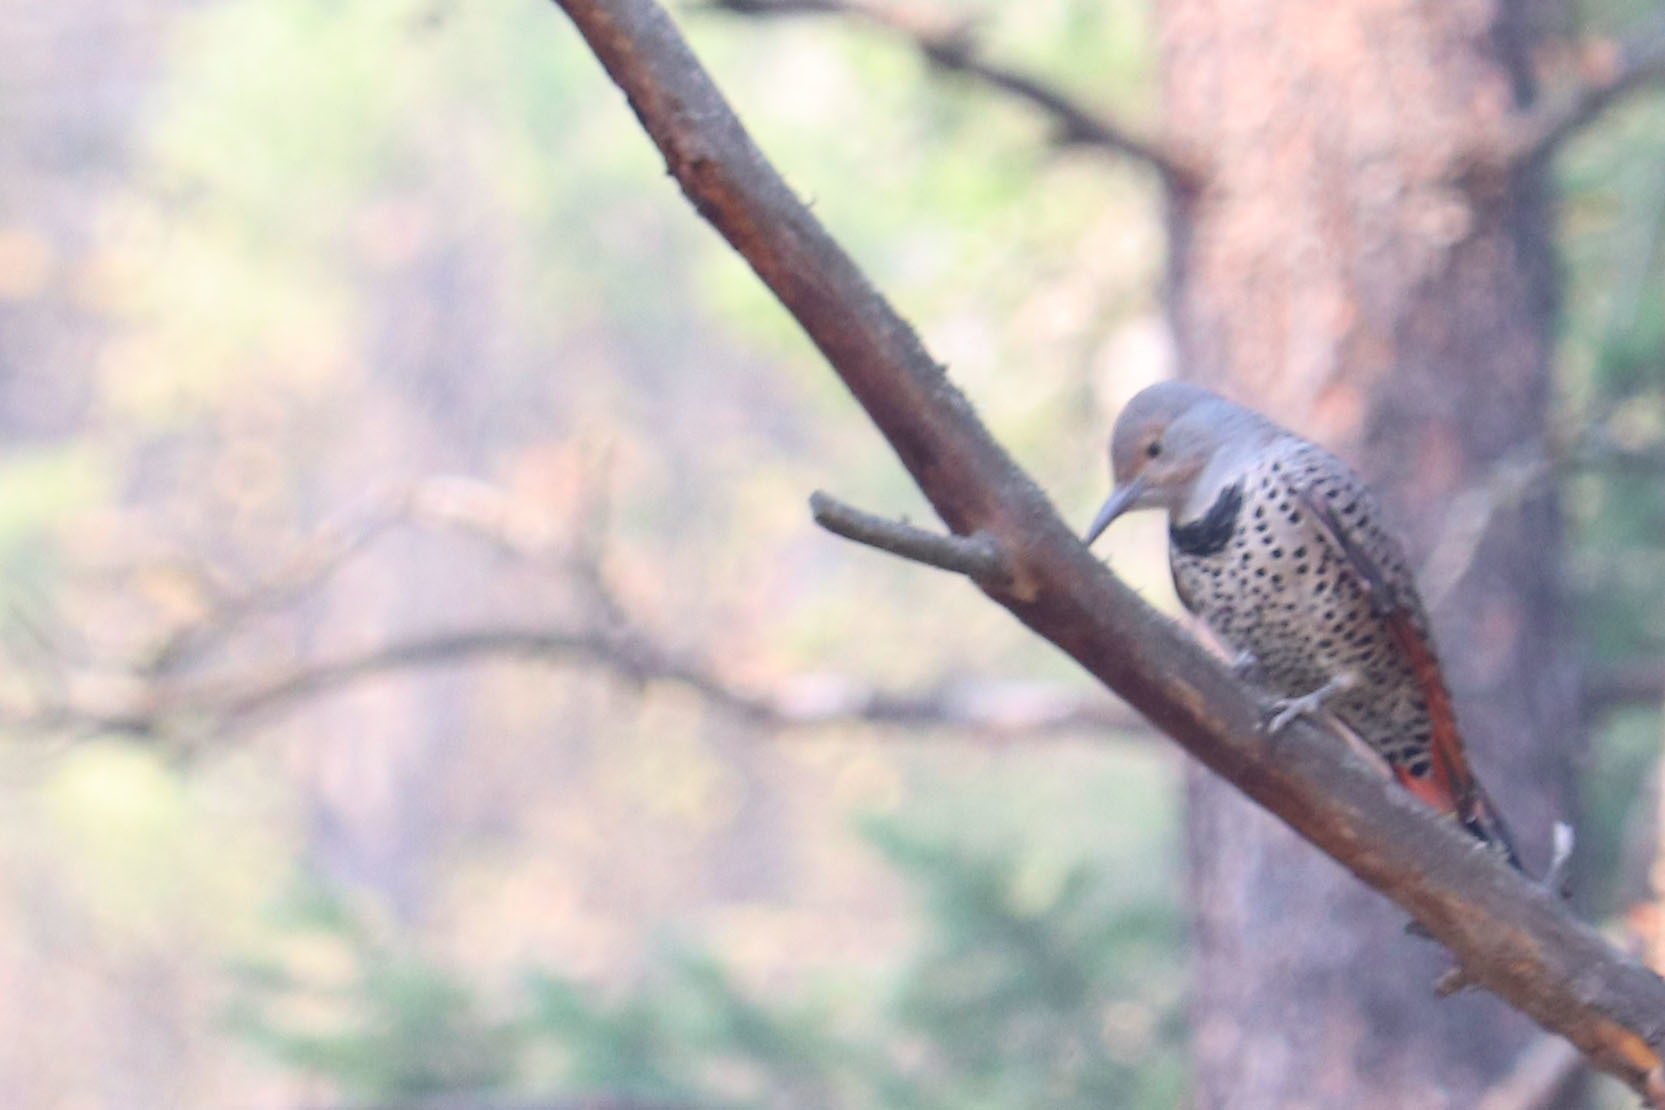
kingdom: Animalia
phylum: Chordata
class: Aves
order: Piciformes
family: Picidae
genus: Colaptes
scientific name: Colaptes auratus
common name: Northern flicker
